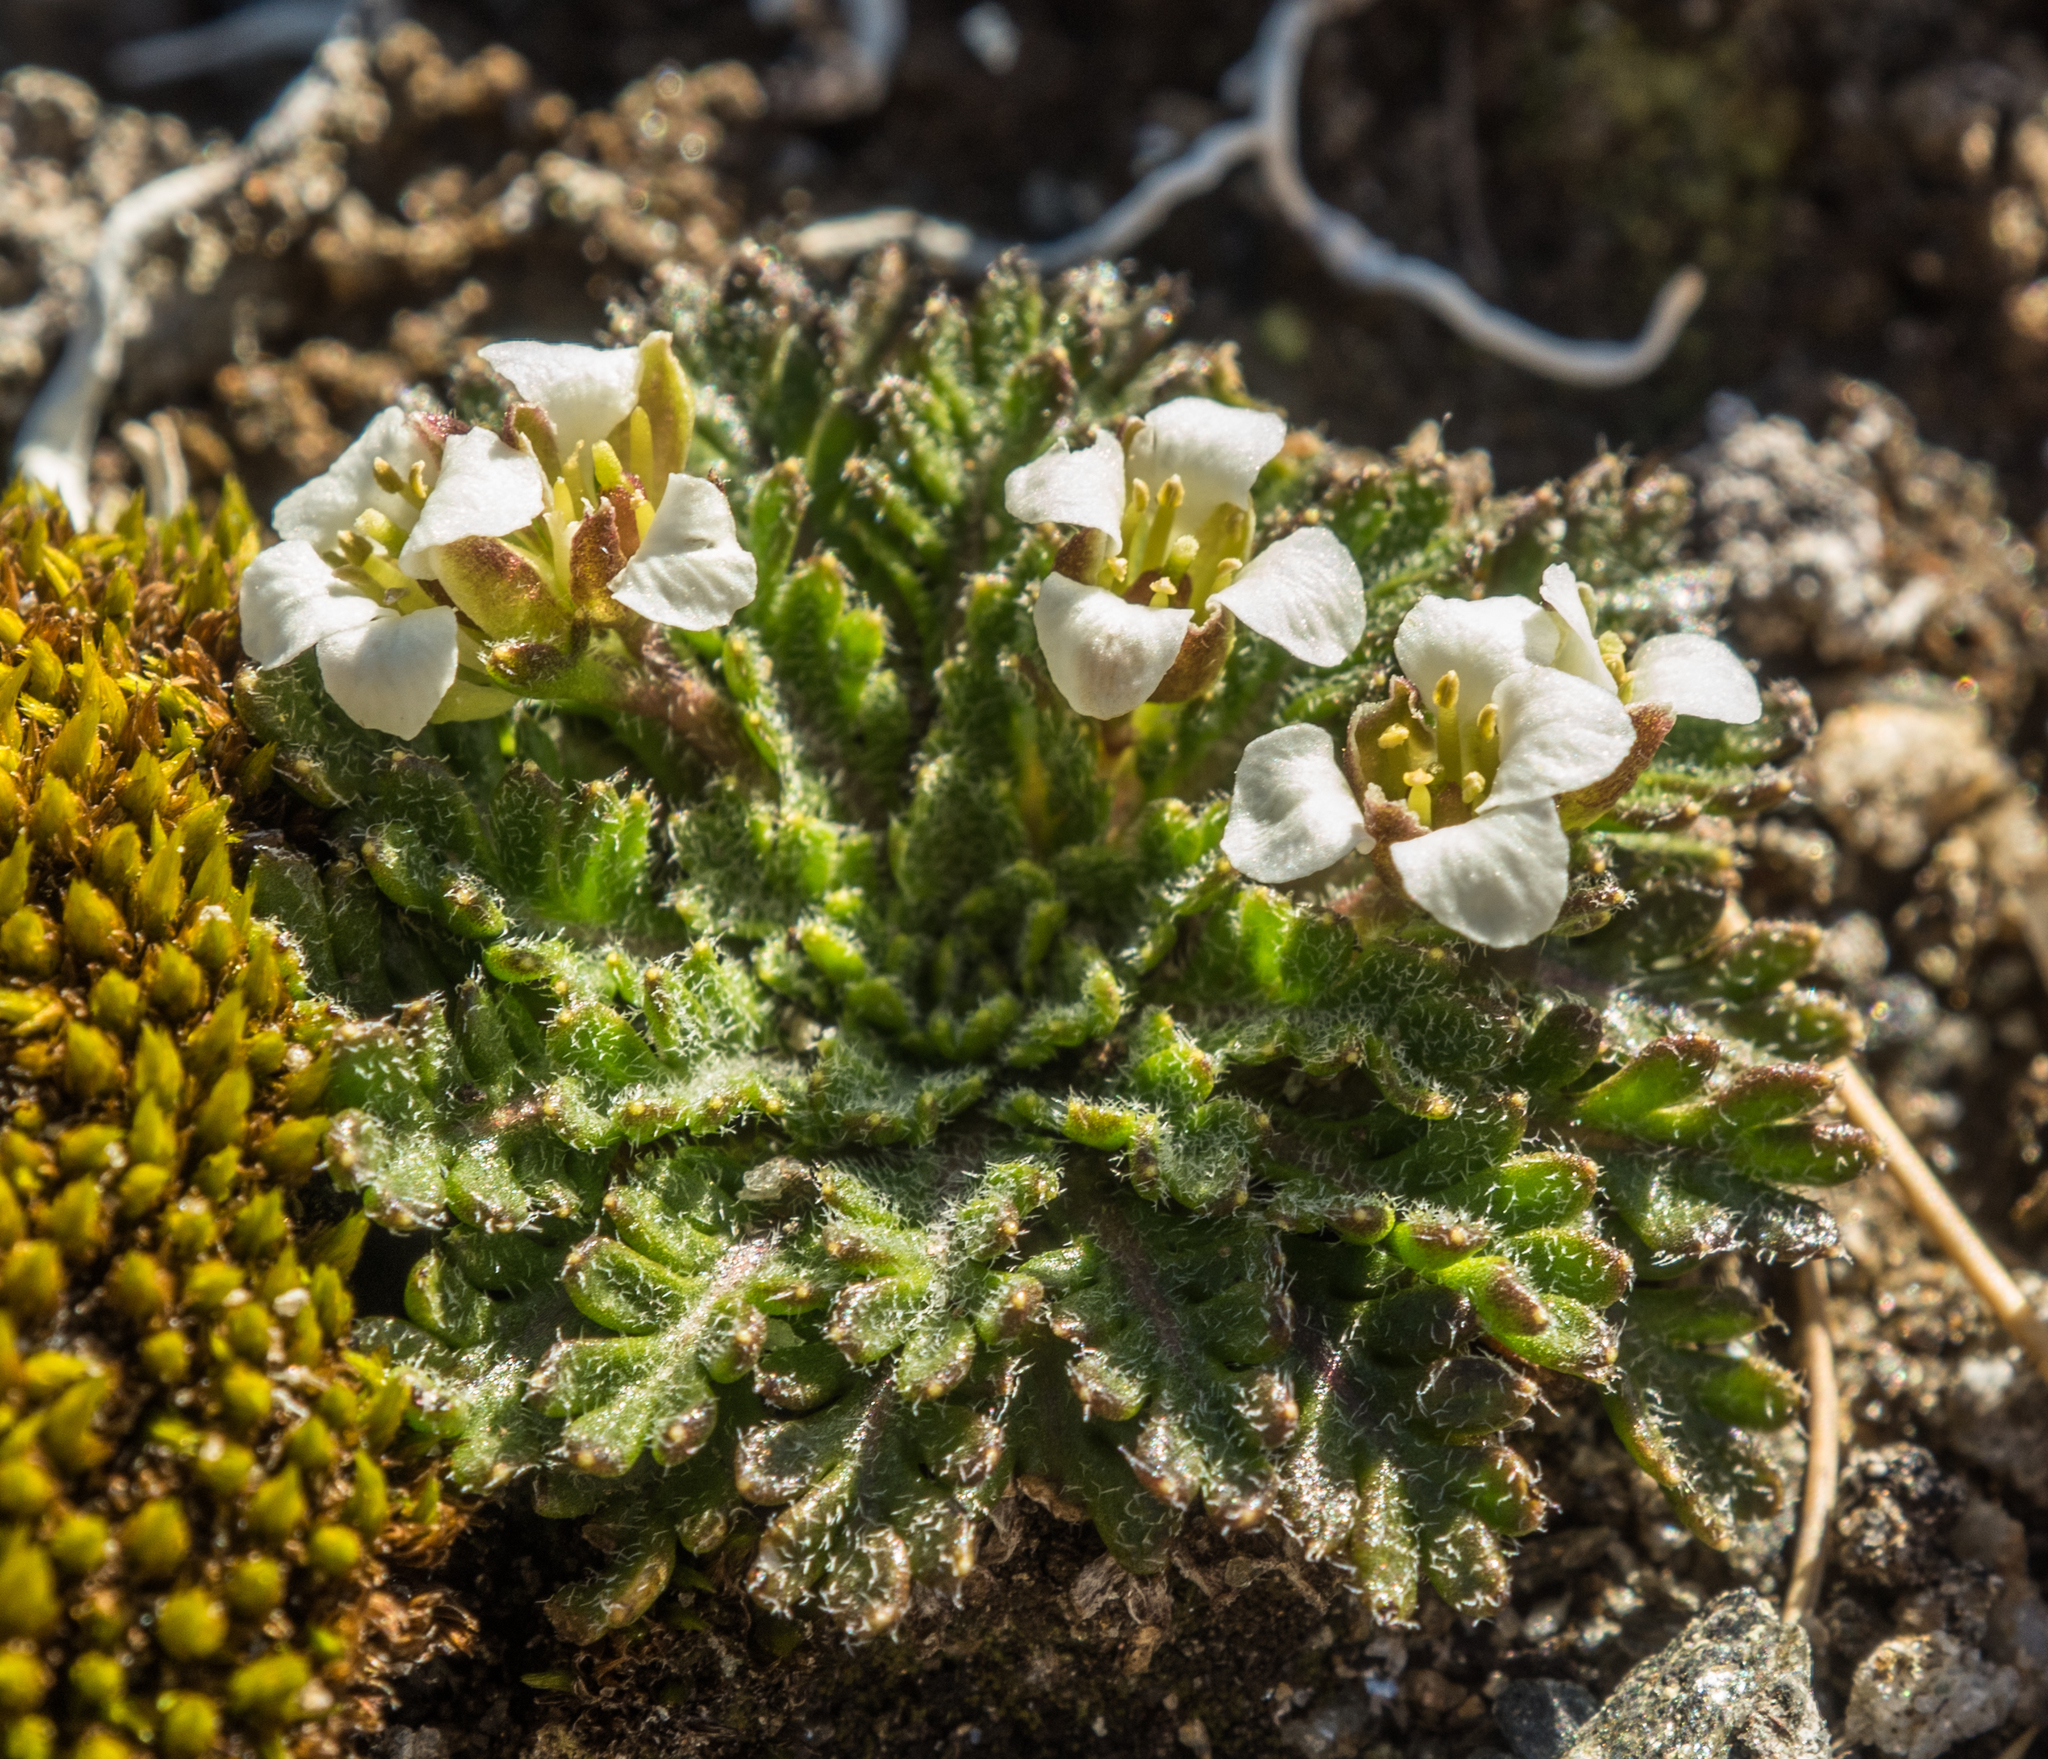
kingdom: Plantae
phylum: Tracheophyta
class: Magnoliopsida
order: Brassicales
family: Brassicaceae
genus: Pachycladon
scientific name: Pachycladon novae-zelandiae
